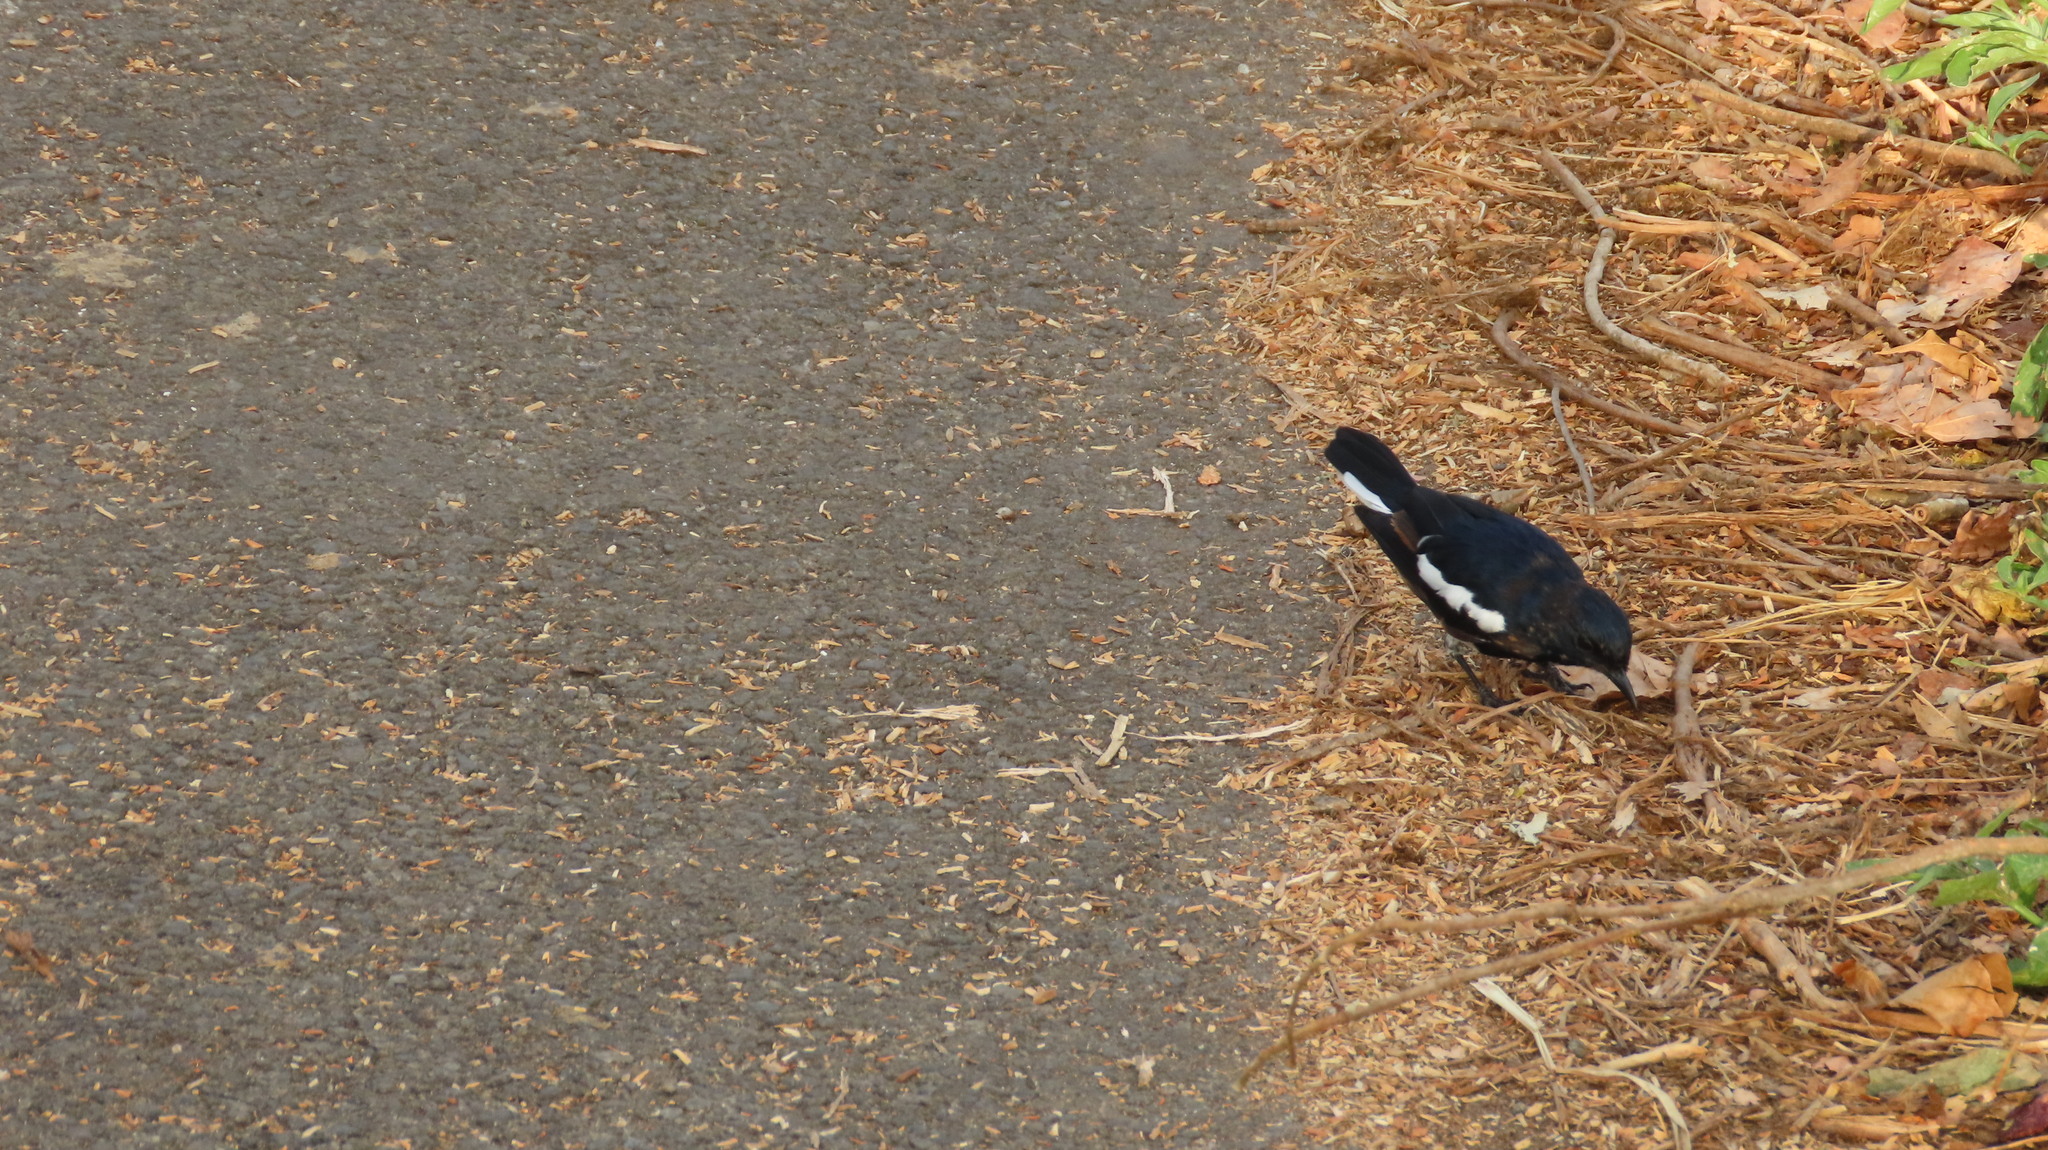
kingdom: Animalia
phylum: Chordata
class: Aves
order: Passeriformes
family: Muscicapidae
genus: Copsychus
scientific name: Copsychus saularis
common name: Oriental magpie-robin
